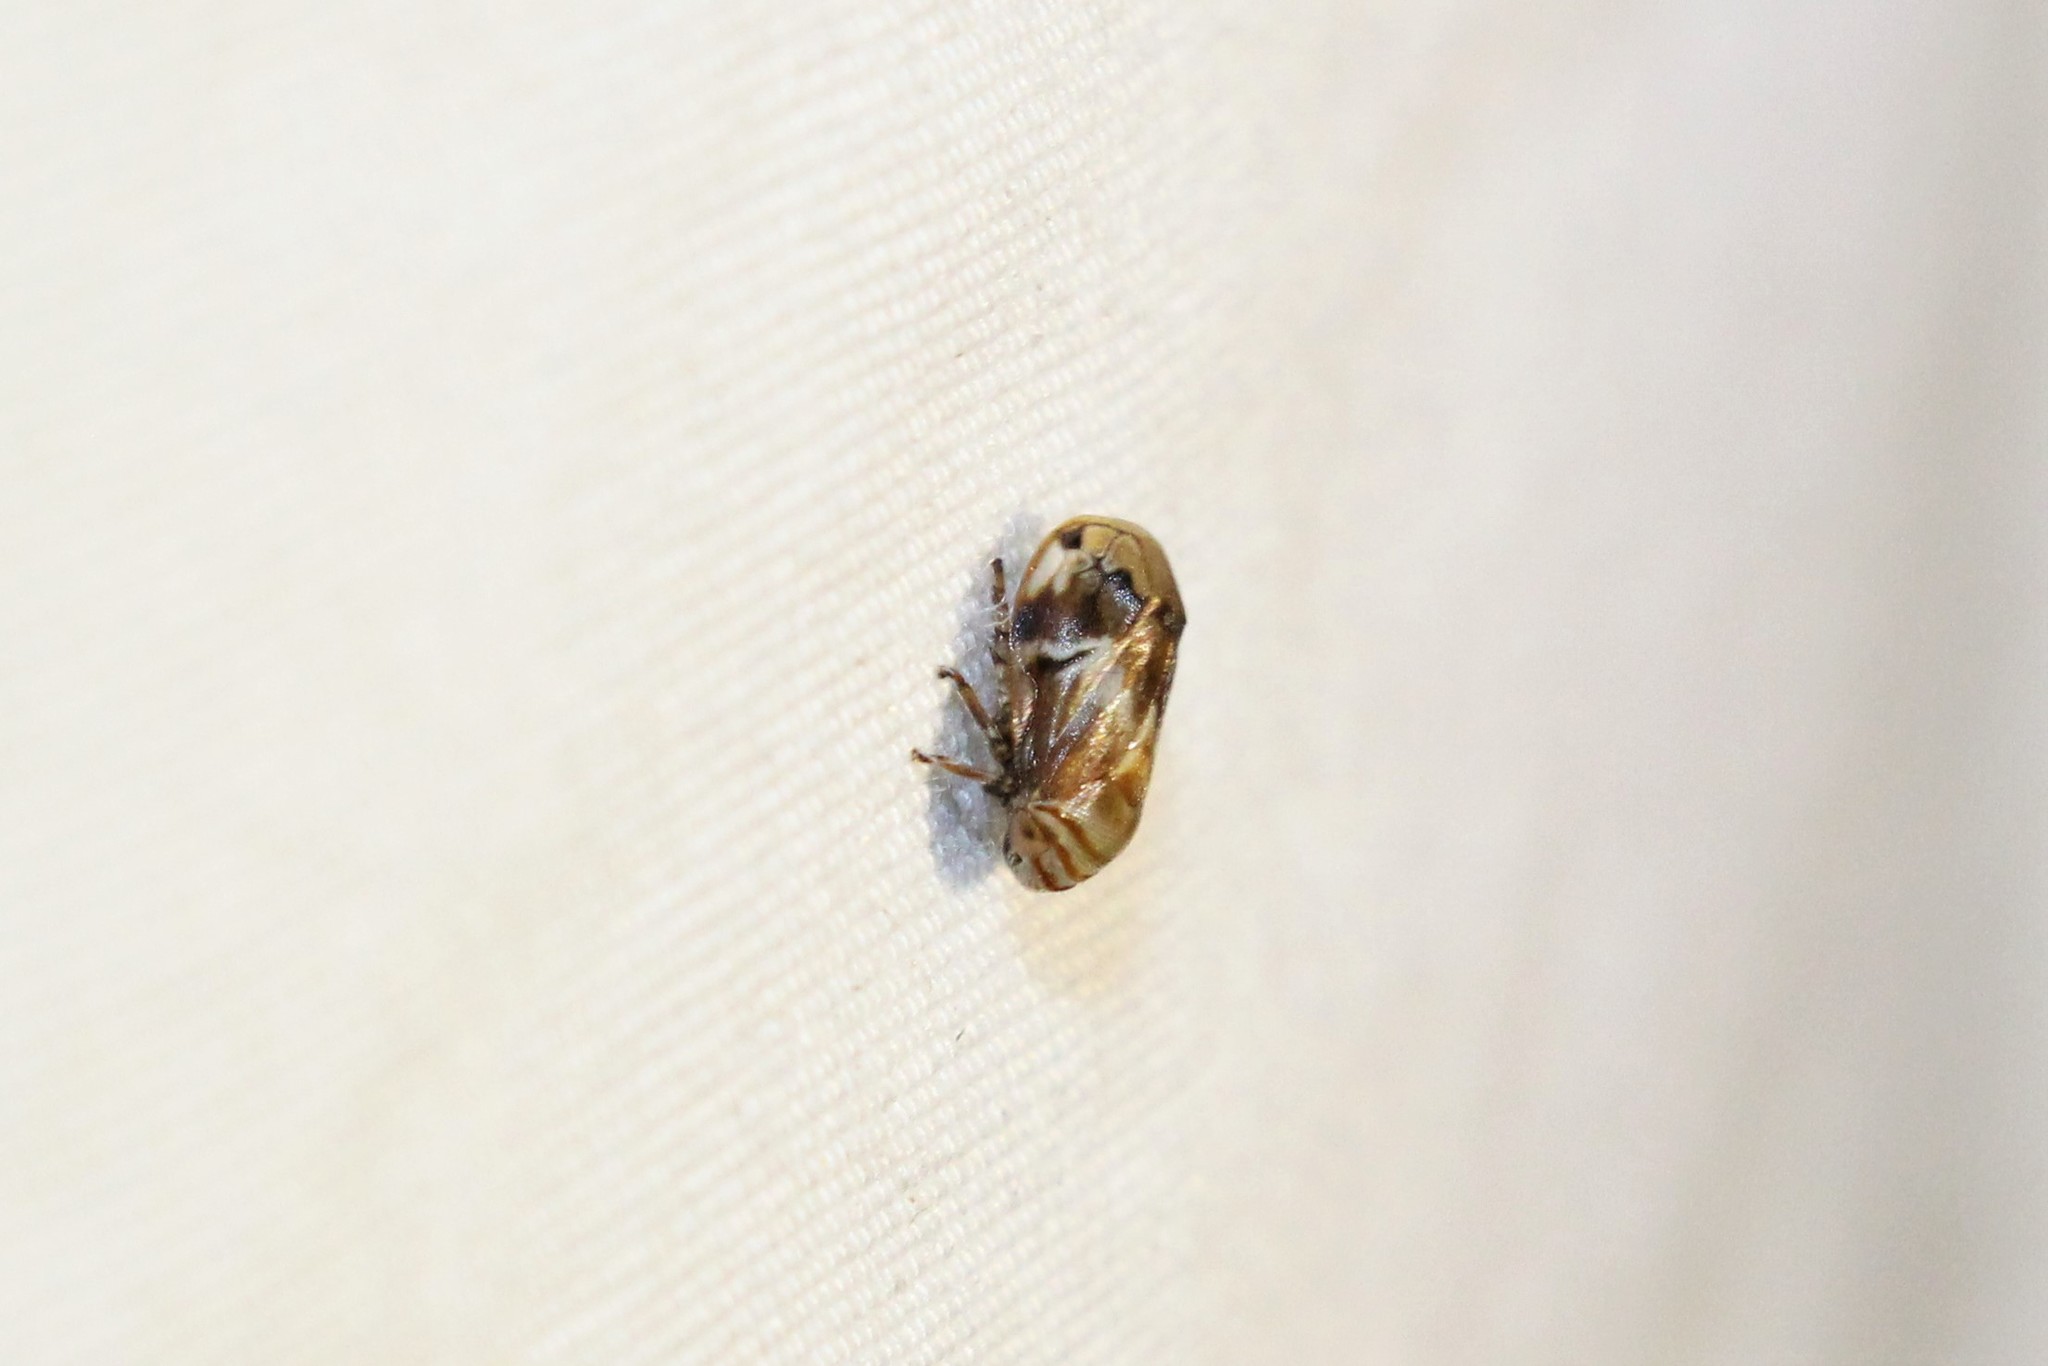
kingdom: Animalia
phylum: Arthropoda
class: Insecta
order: Hemiptera
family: Clastopteridae
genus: Clastoptera
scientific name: Clastoptera obtusa
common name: Alder spittlebug
